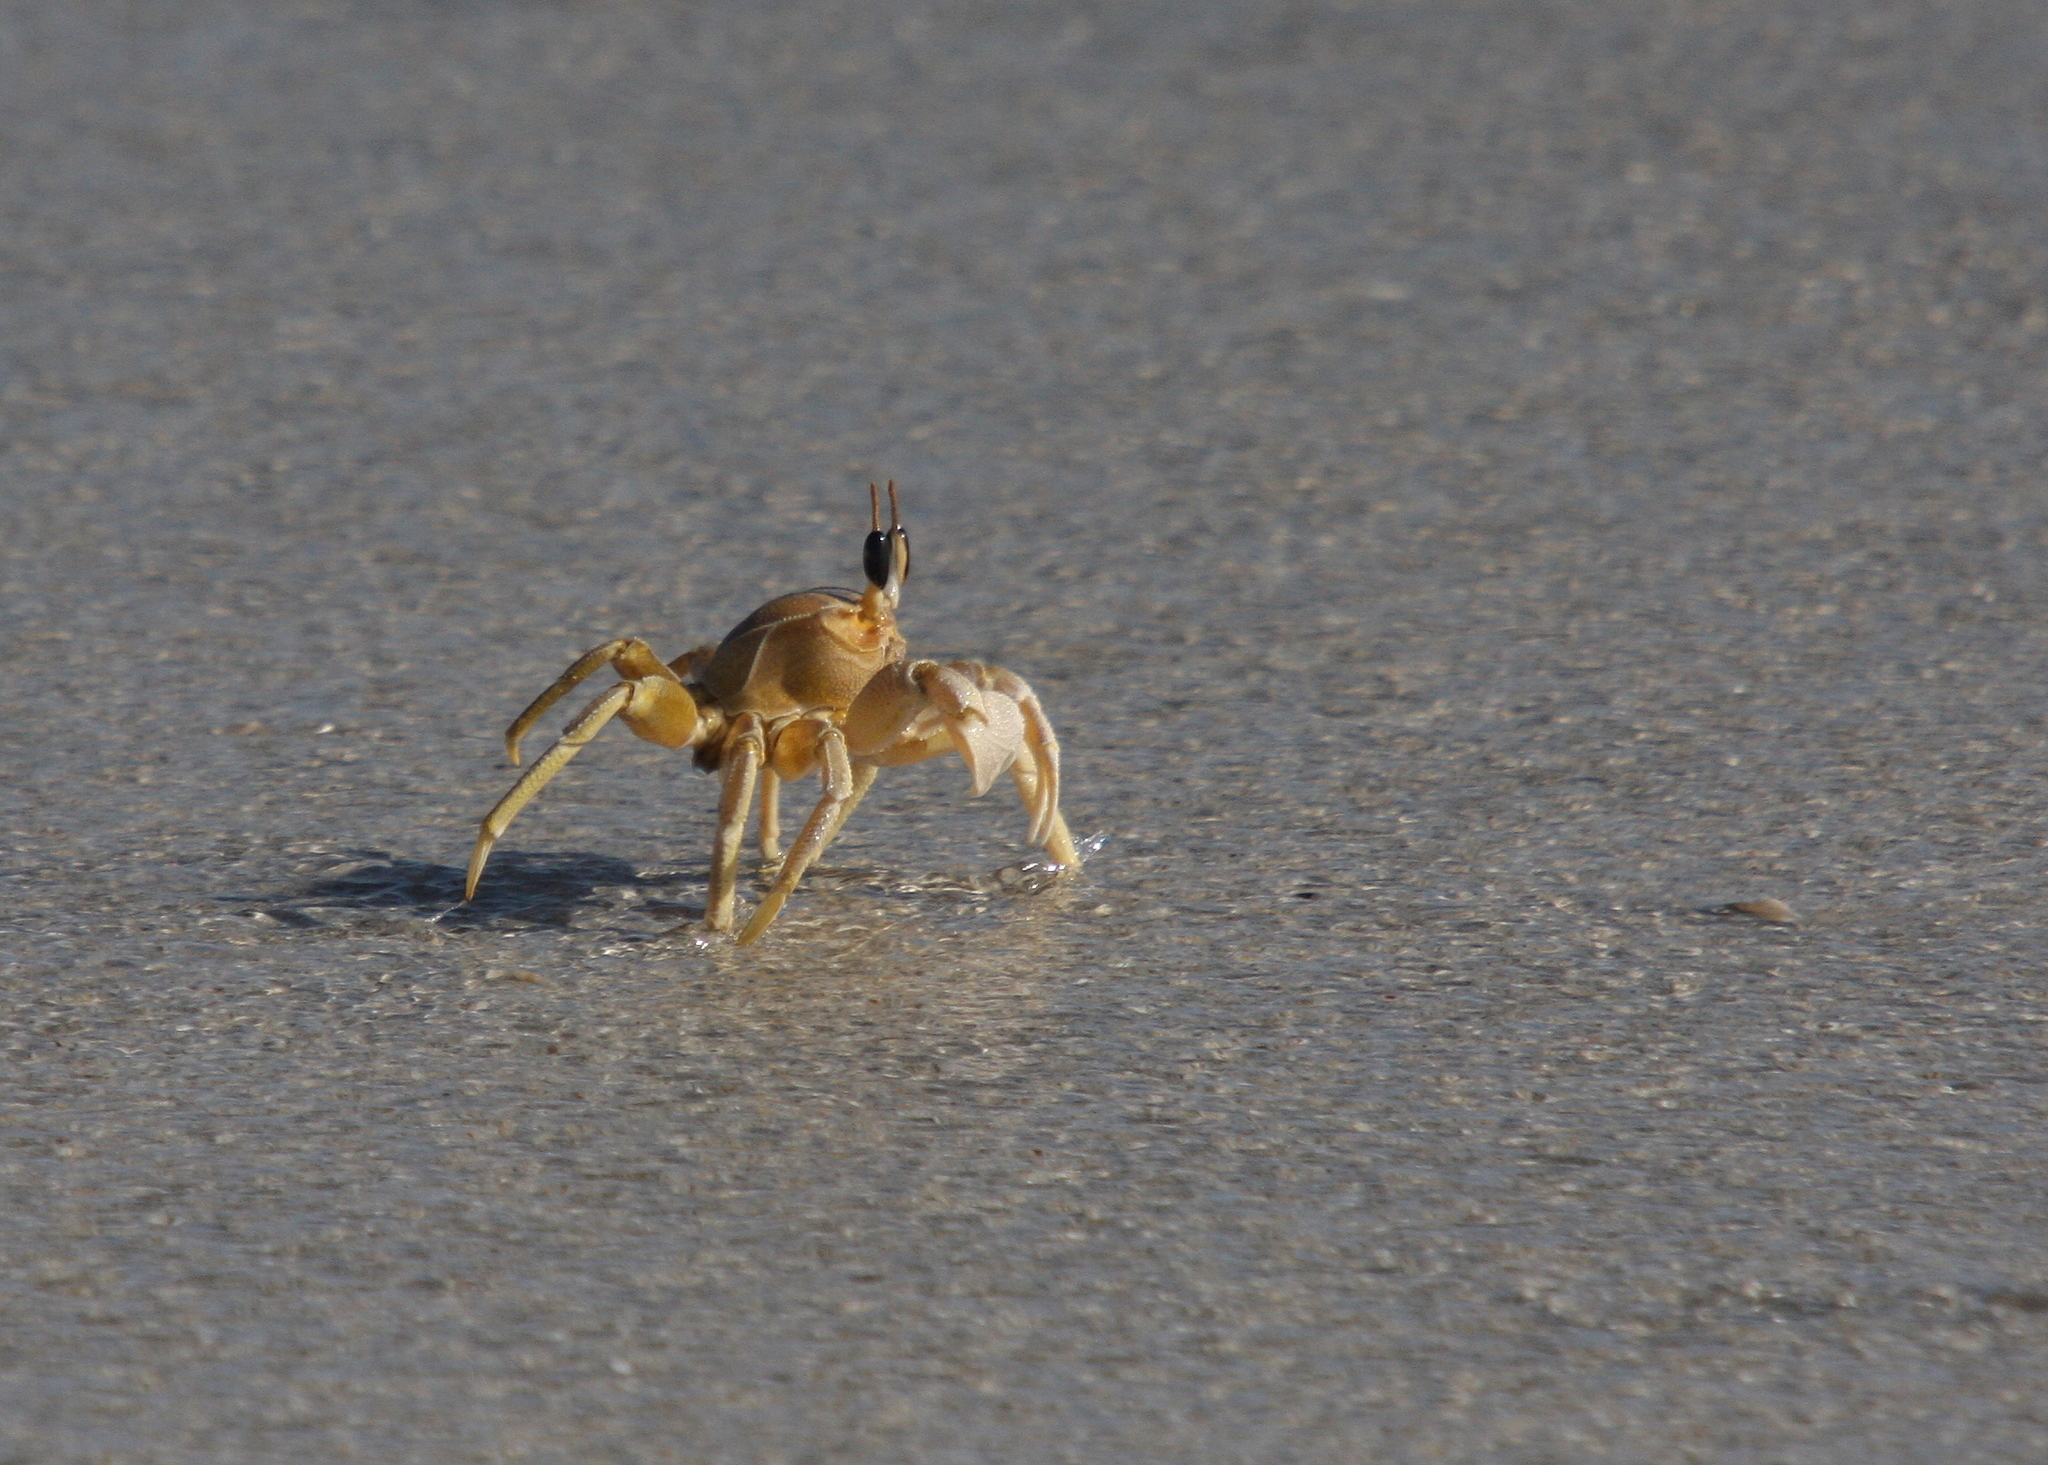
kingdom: Animalia
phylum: Arthropoda
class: Malacostraca
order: Decapoda
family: Ocypodidae
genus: Ocypode
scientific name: Ocypode saratan
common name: Red sea ghost crab
